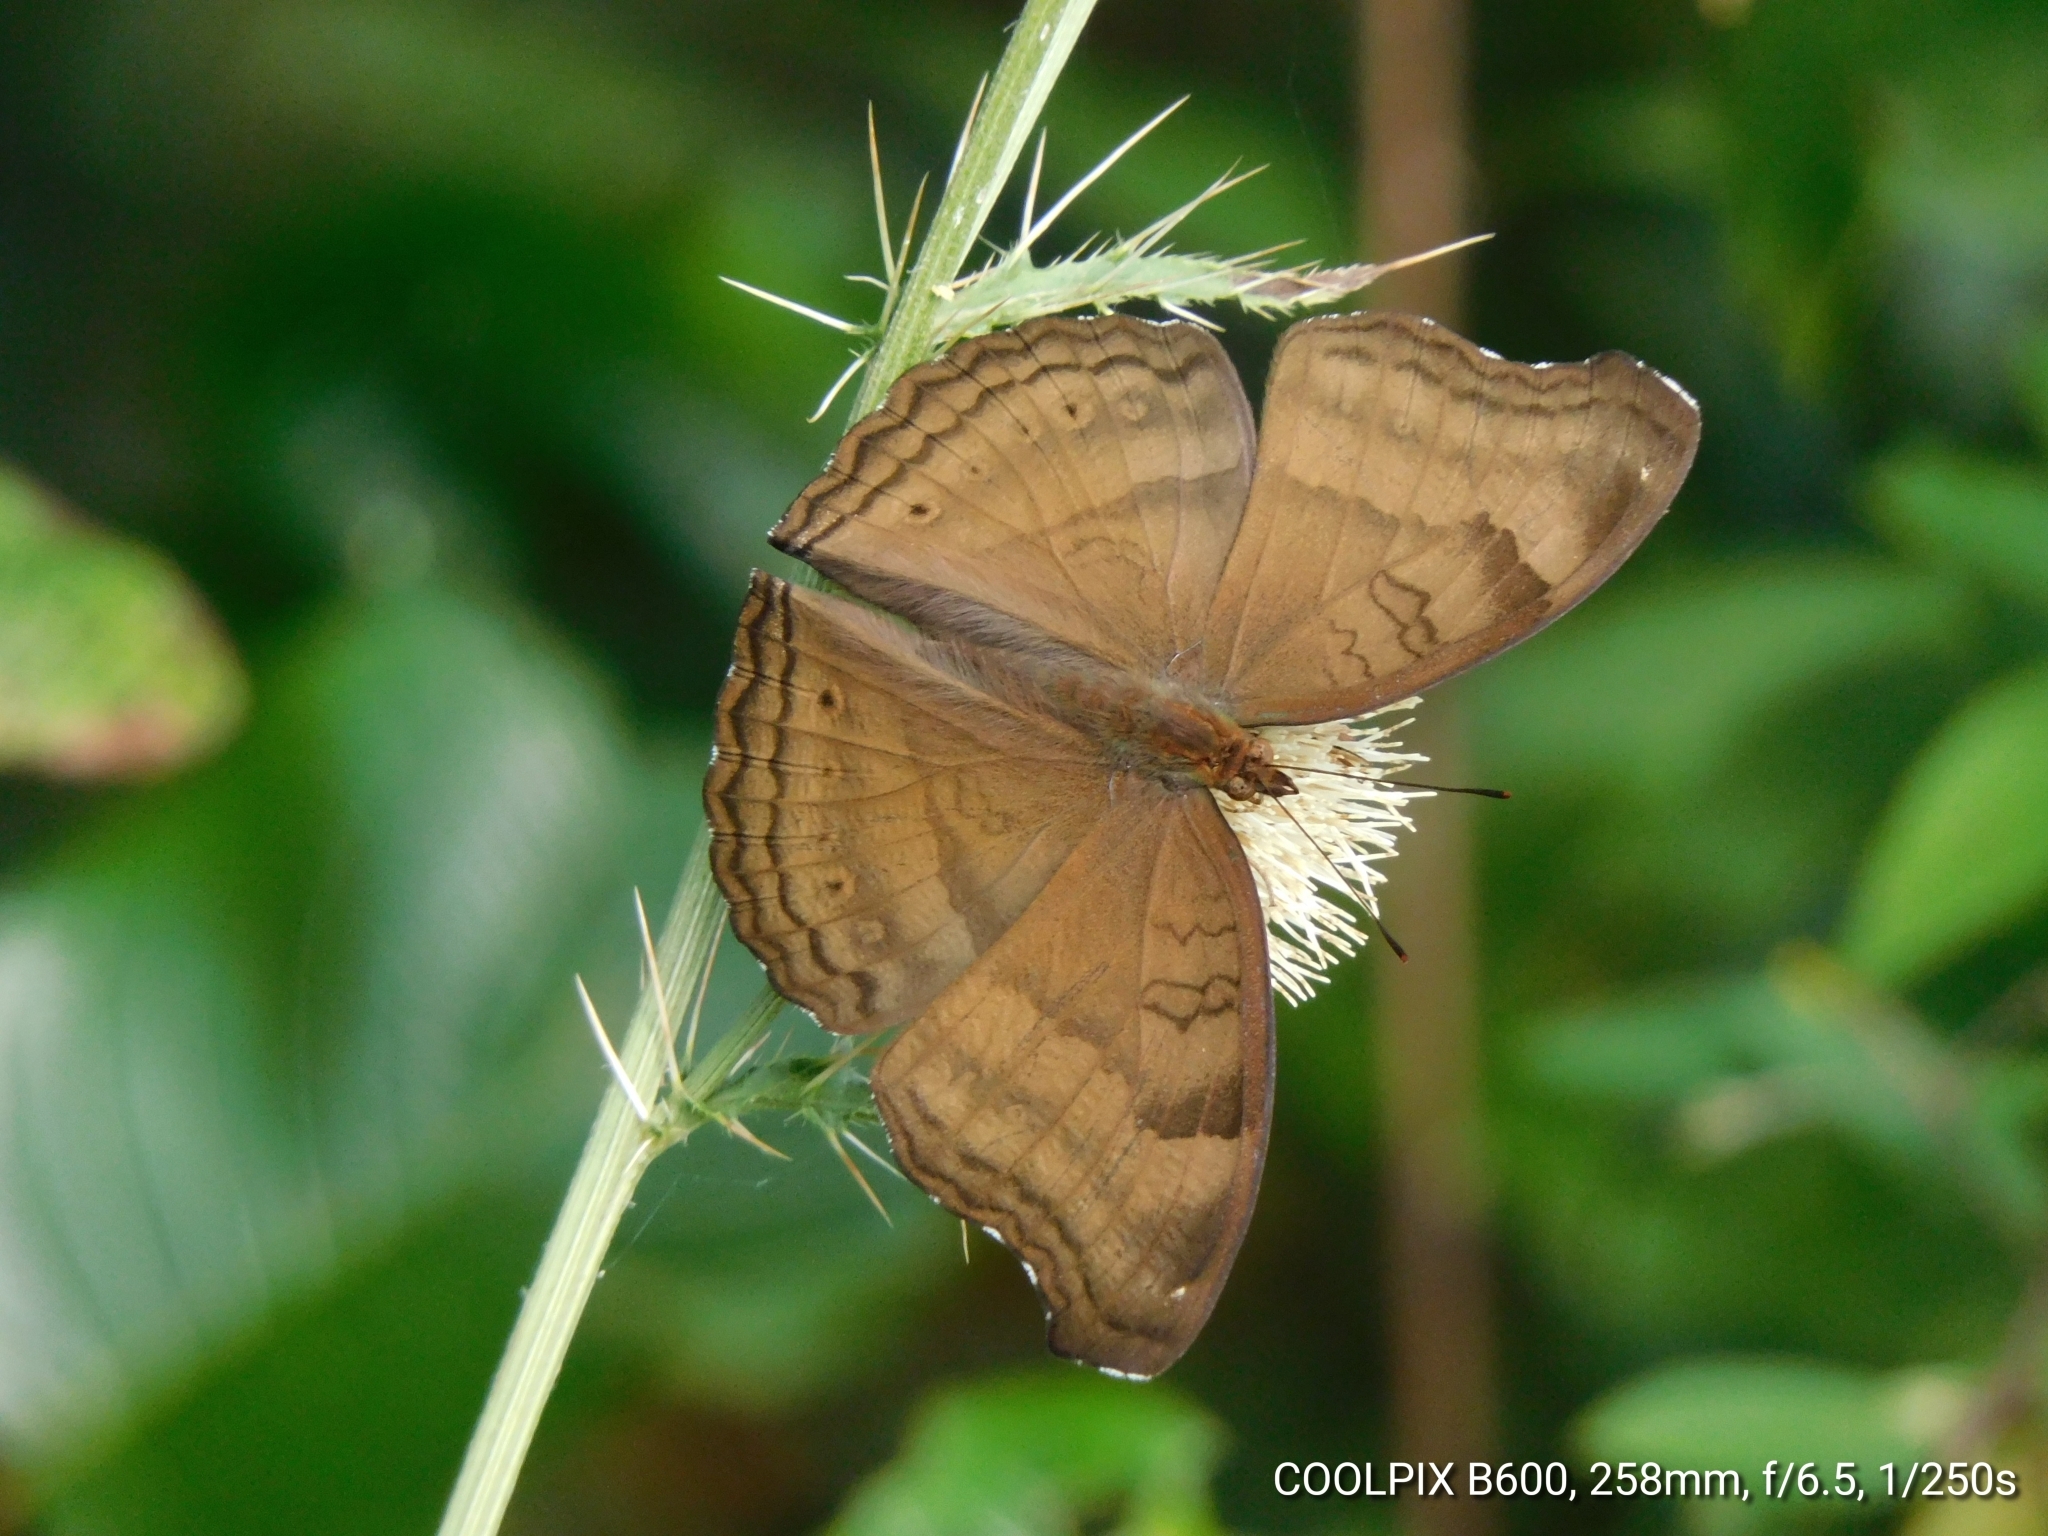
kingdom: Animalia
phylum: Arthropoda
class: Insecta
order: Lepidoptera
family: Nymphalidae
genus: Junonia
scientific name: Junonia iphita
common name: Chocolate pansy
